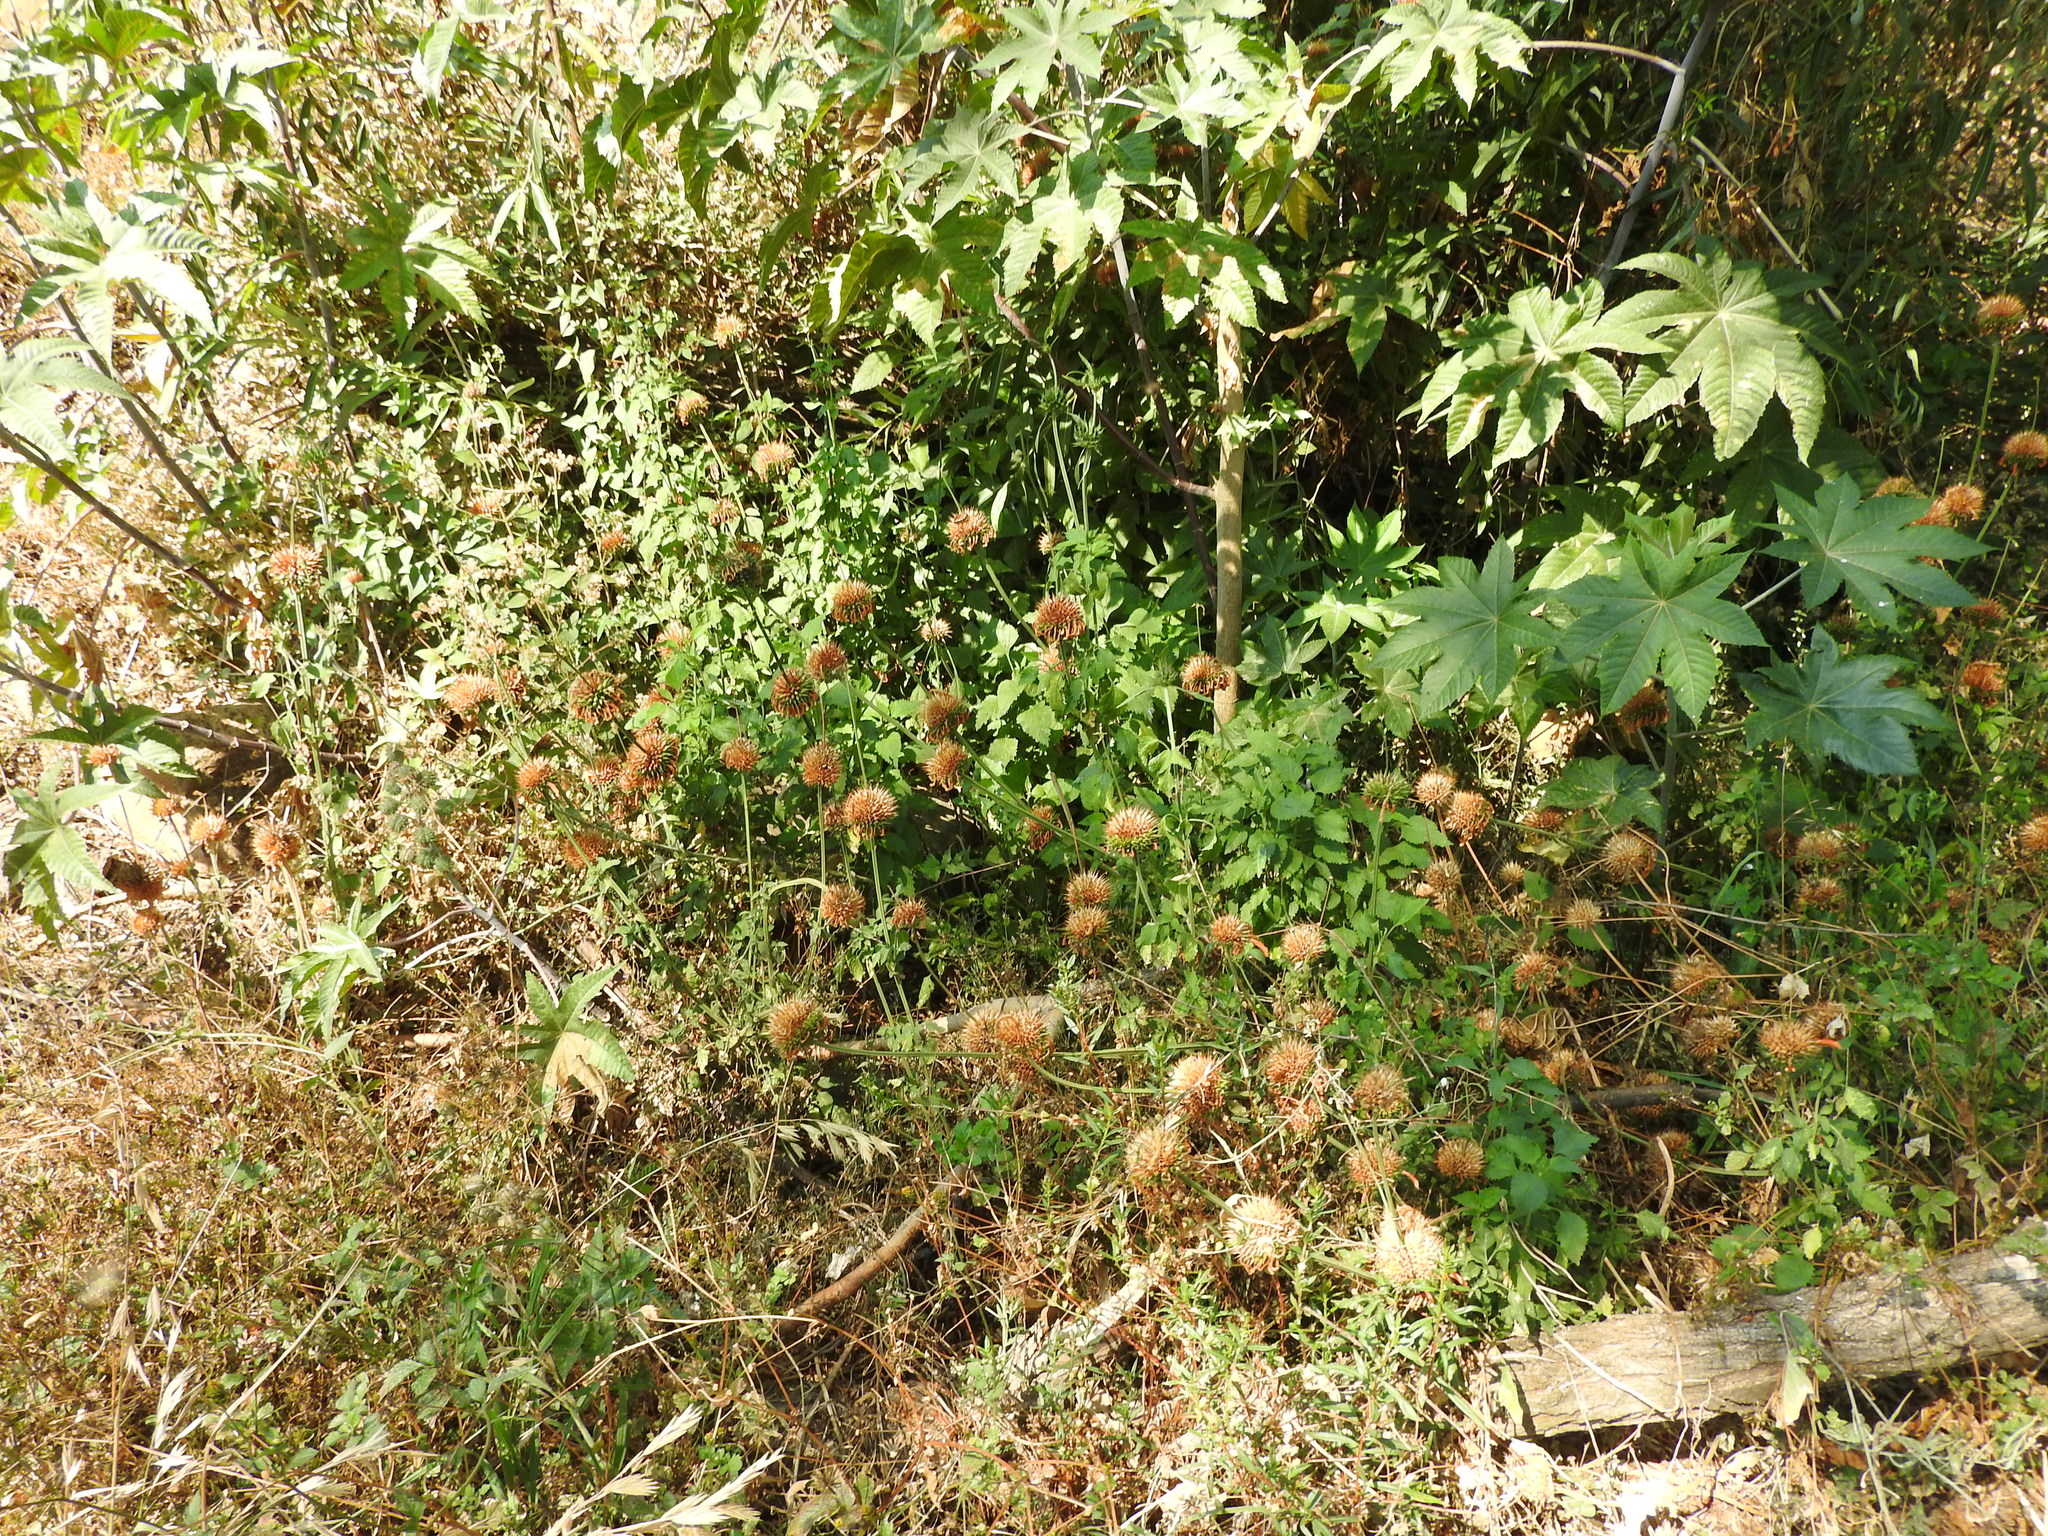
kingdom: Plantae
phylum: Tracheophyta
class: Magnoliopsida
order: Lamiales
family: Lamiaceae
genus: Leonotis
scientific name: Leonotis nepetifolia
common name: Christmas candlestick
